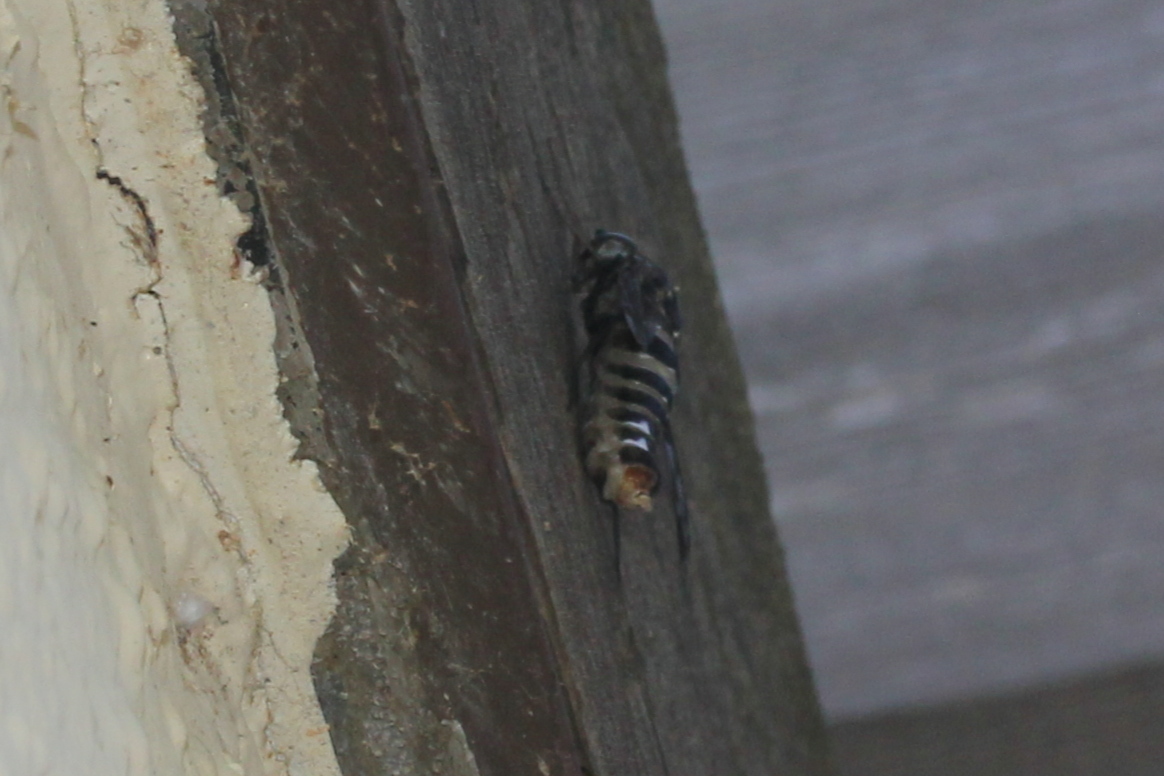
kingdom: Animalia
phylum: Arthropoda
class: Insecta
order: Diptera
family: Bombyliidae
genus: Xenox
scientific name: Xenox tigrinus
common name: Tiger bee fly
